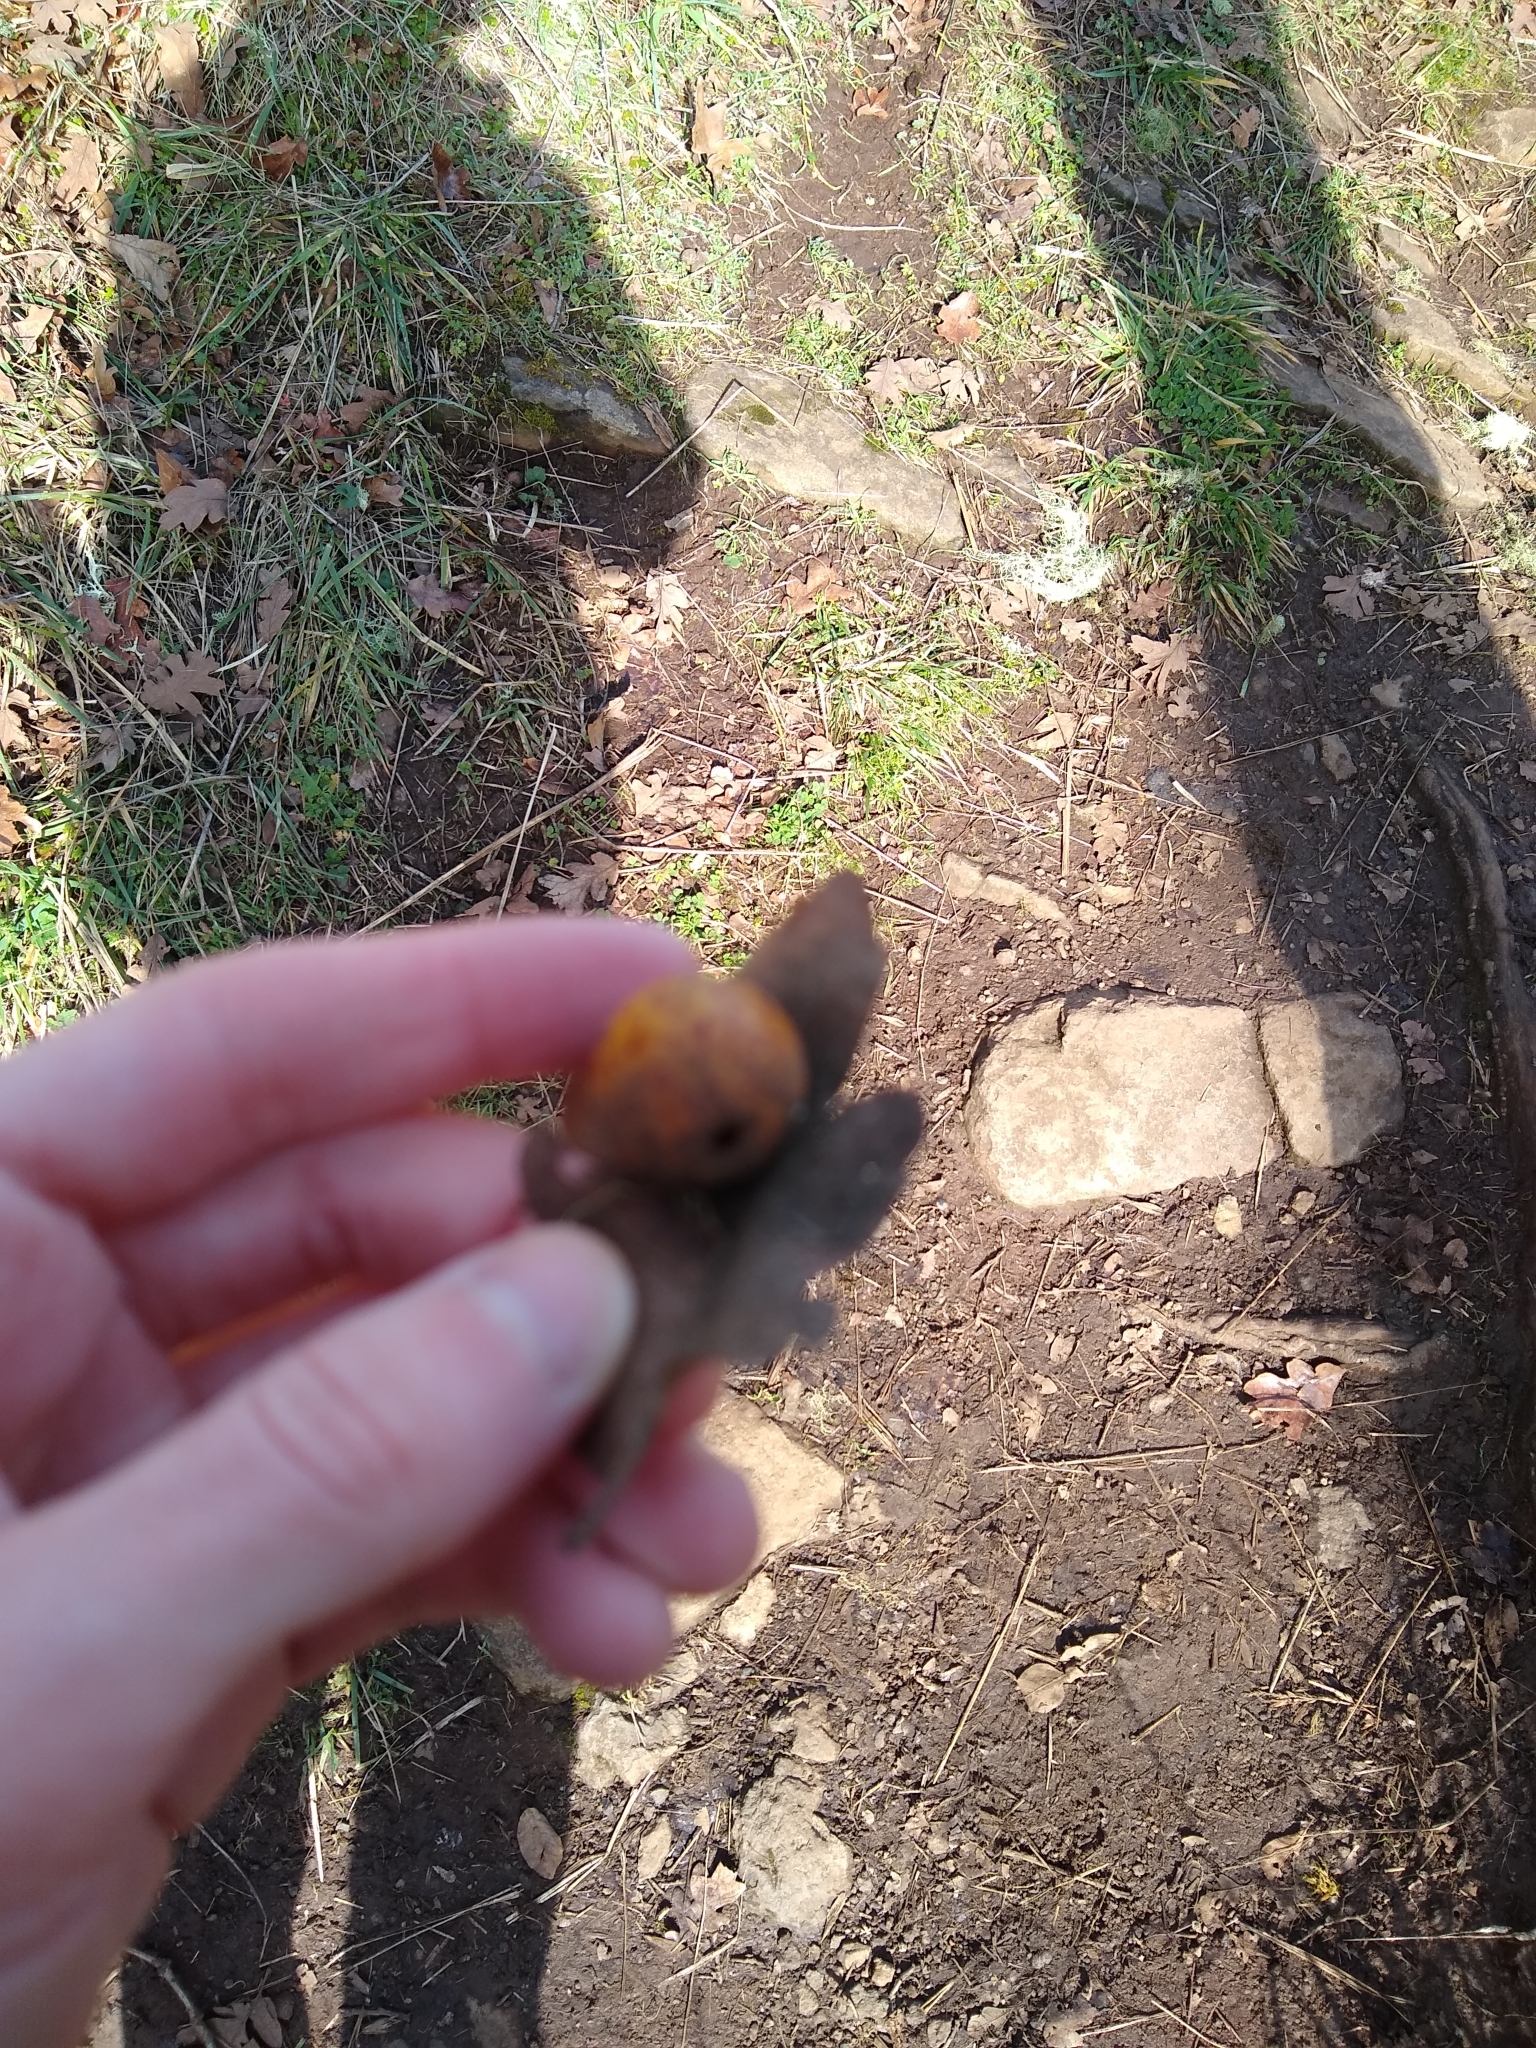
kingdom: Animalia
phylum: Arthropoda
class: Insecta
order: Hymenoptera
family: Cynipidae
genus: Cynips
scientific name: Cynips
